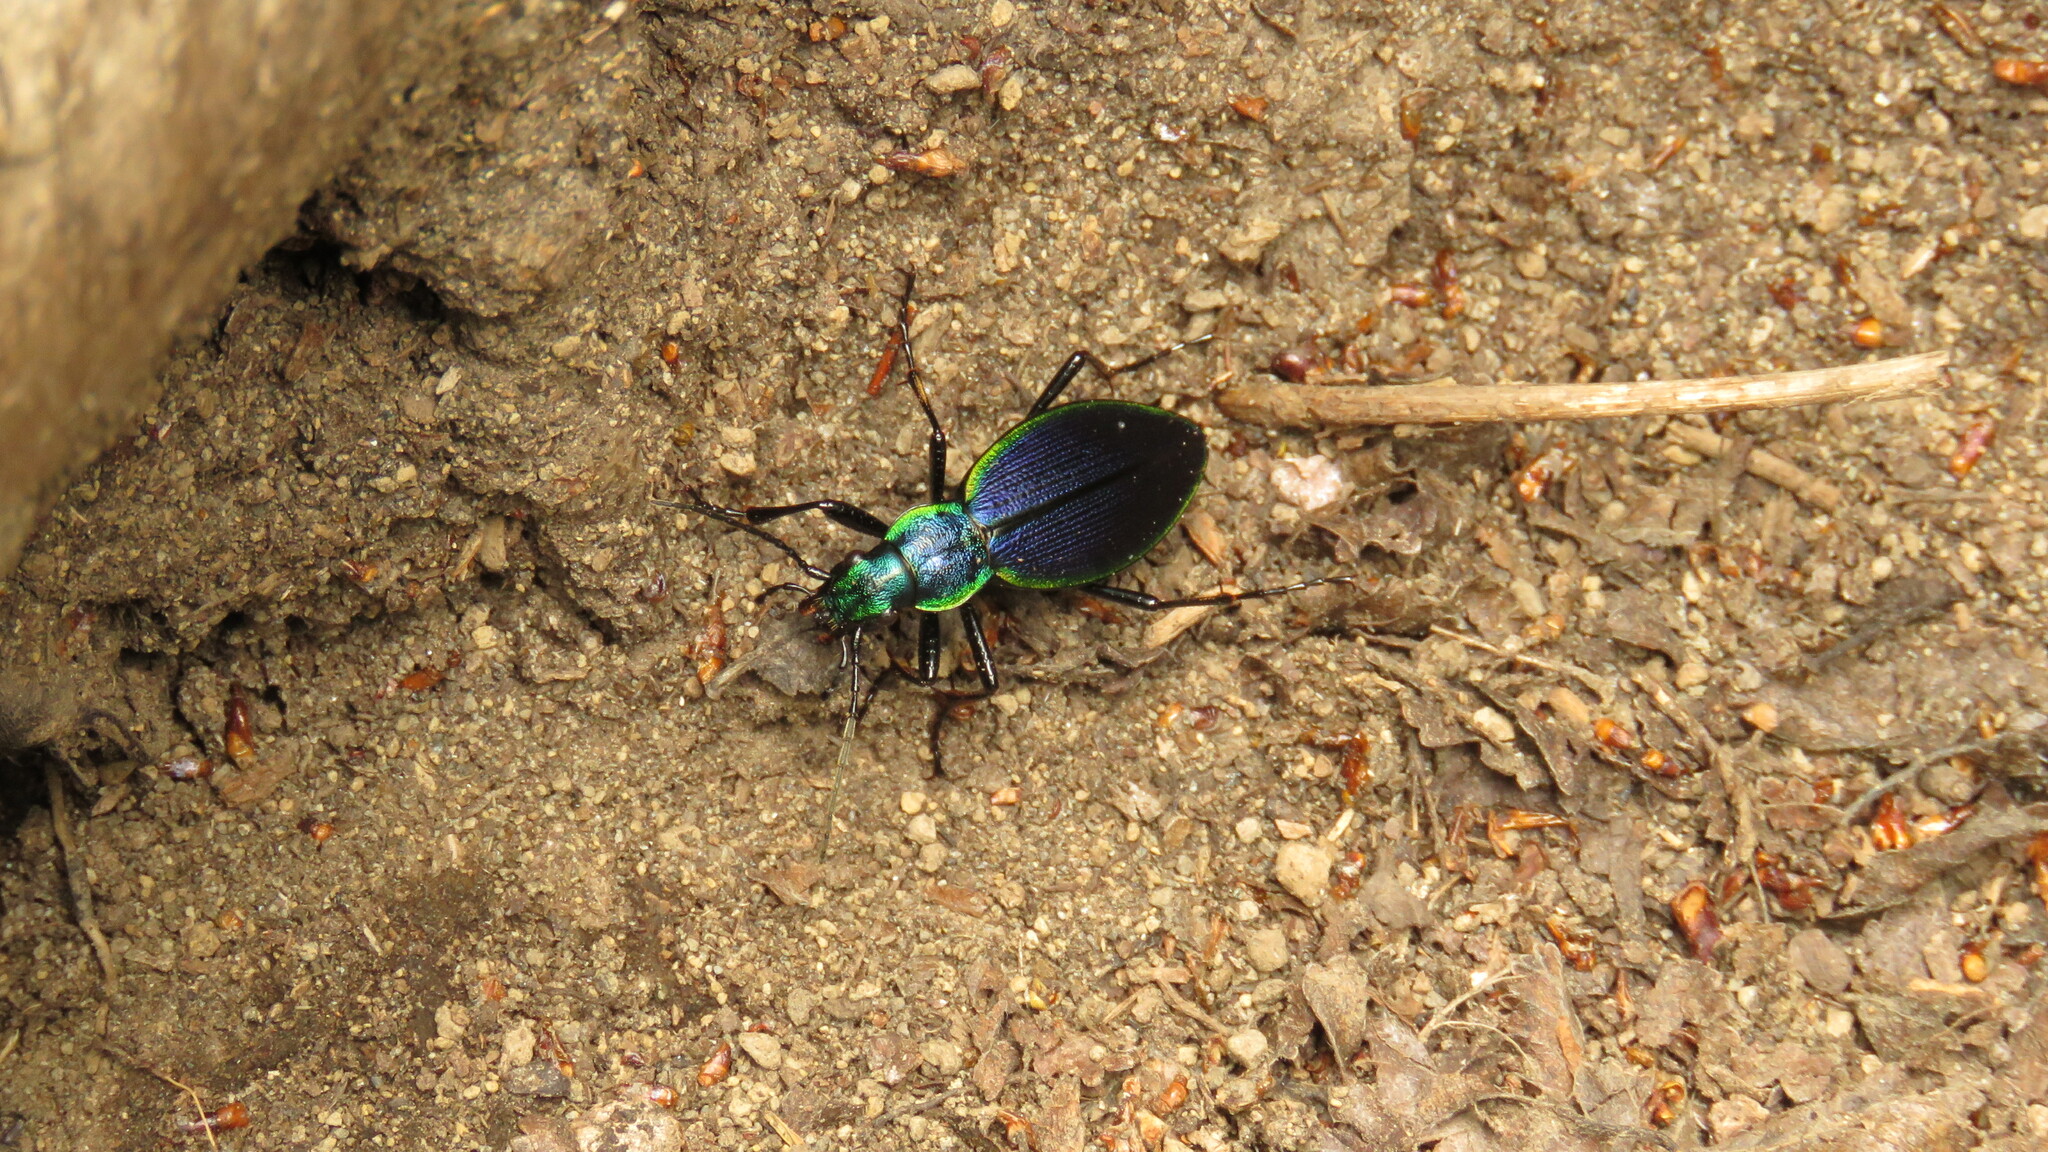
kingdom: Animalia
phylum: Arthropoda
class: Insecta
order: Coleoptera
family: Carabidae
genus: Ceroglossus
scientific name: Ceroglossus chilensis
